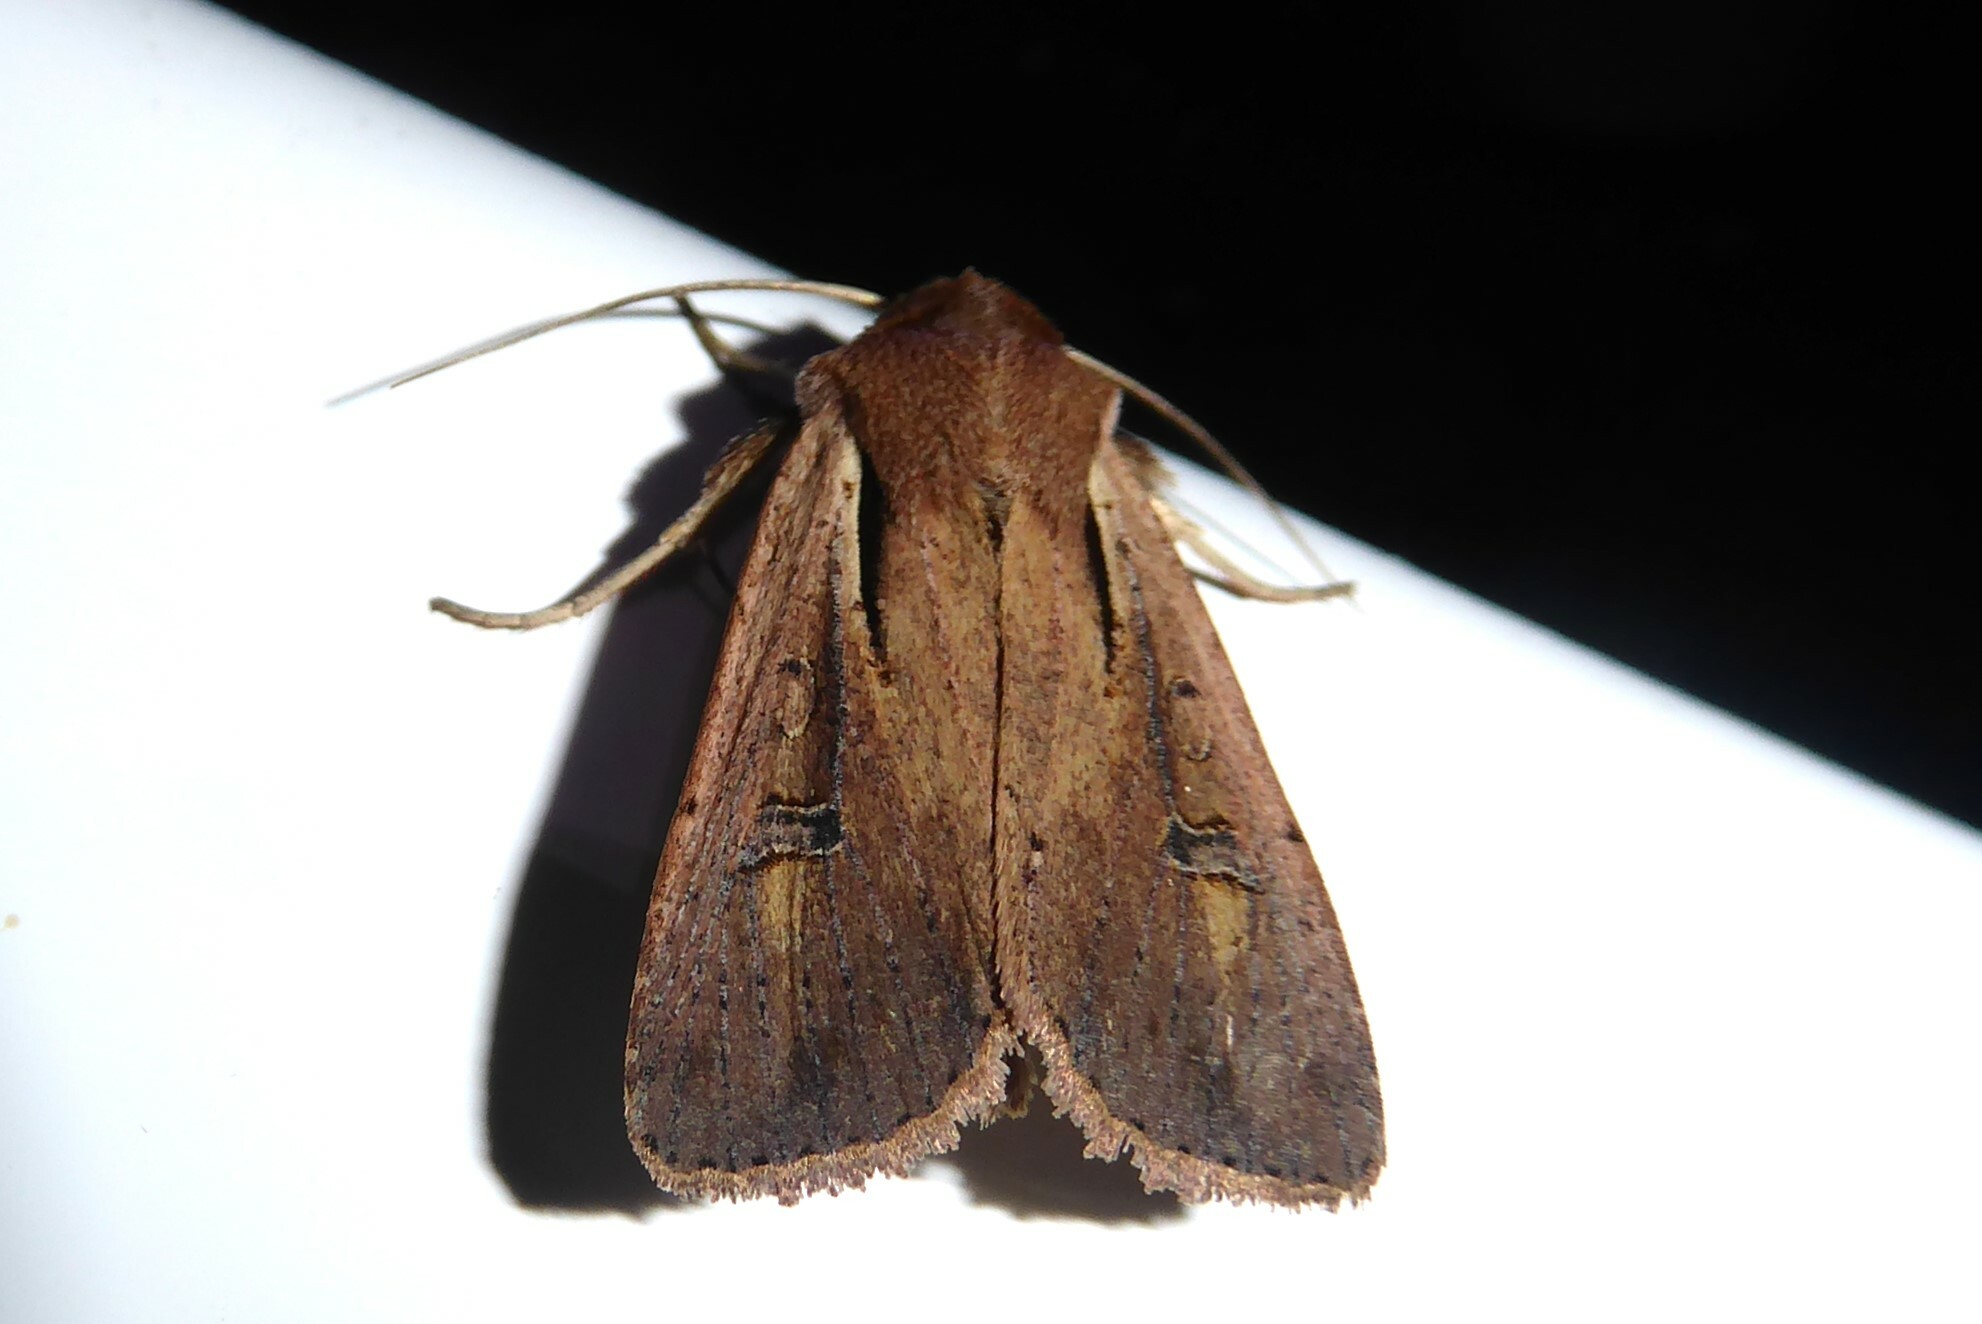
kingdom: Animalia
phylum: Arthropoda
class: Insecta
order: Lepidoptera
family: Noctuidae
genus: Ichneutica
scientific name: Ichneutica atristriga
